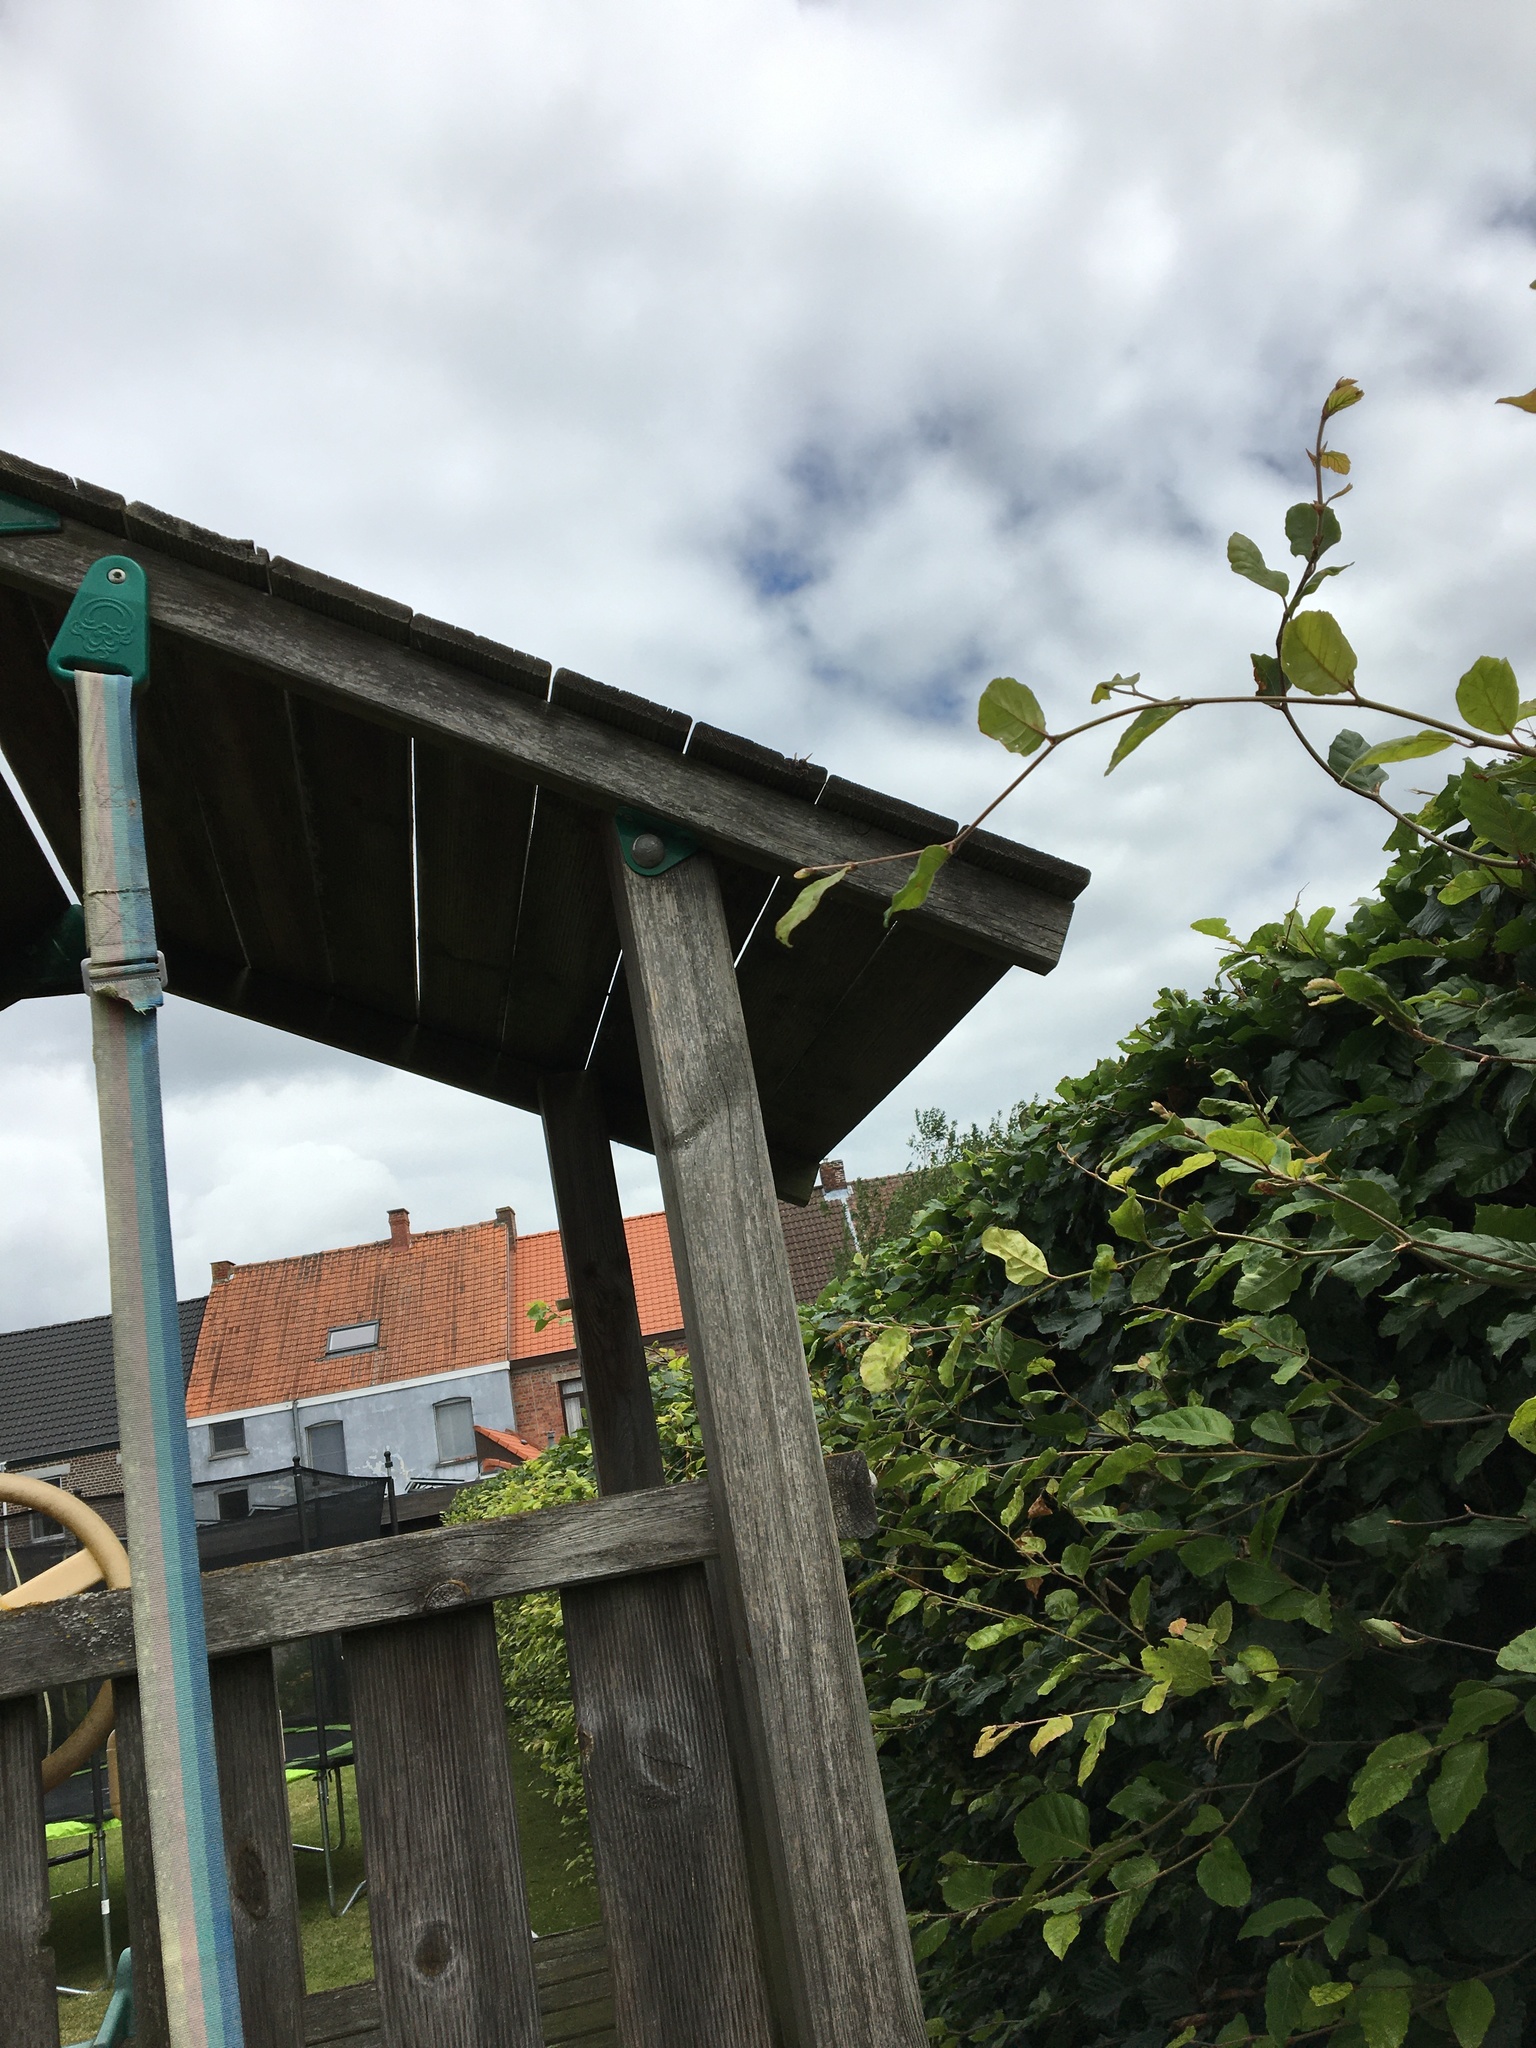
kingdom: Animalia
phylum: Arthropoda
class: Insecta
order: Hymenoptera
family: Vespidae
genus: Vespa
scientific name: Vespa velutina
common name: Asian hornet
